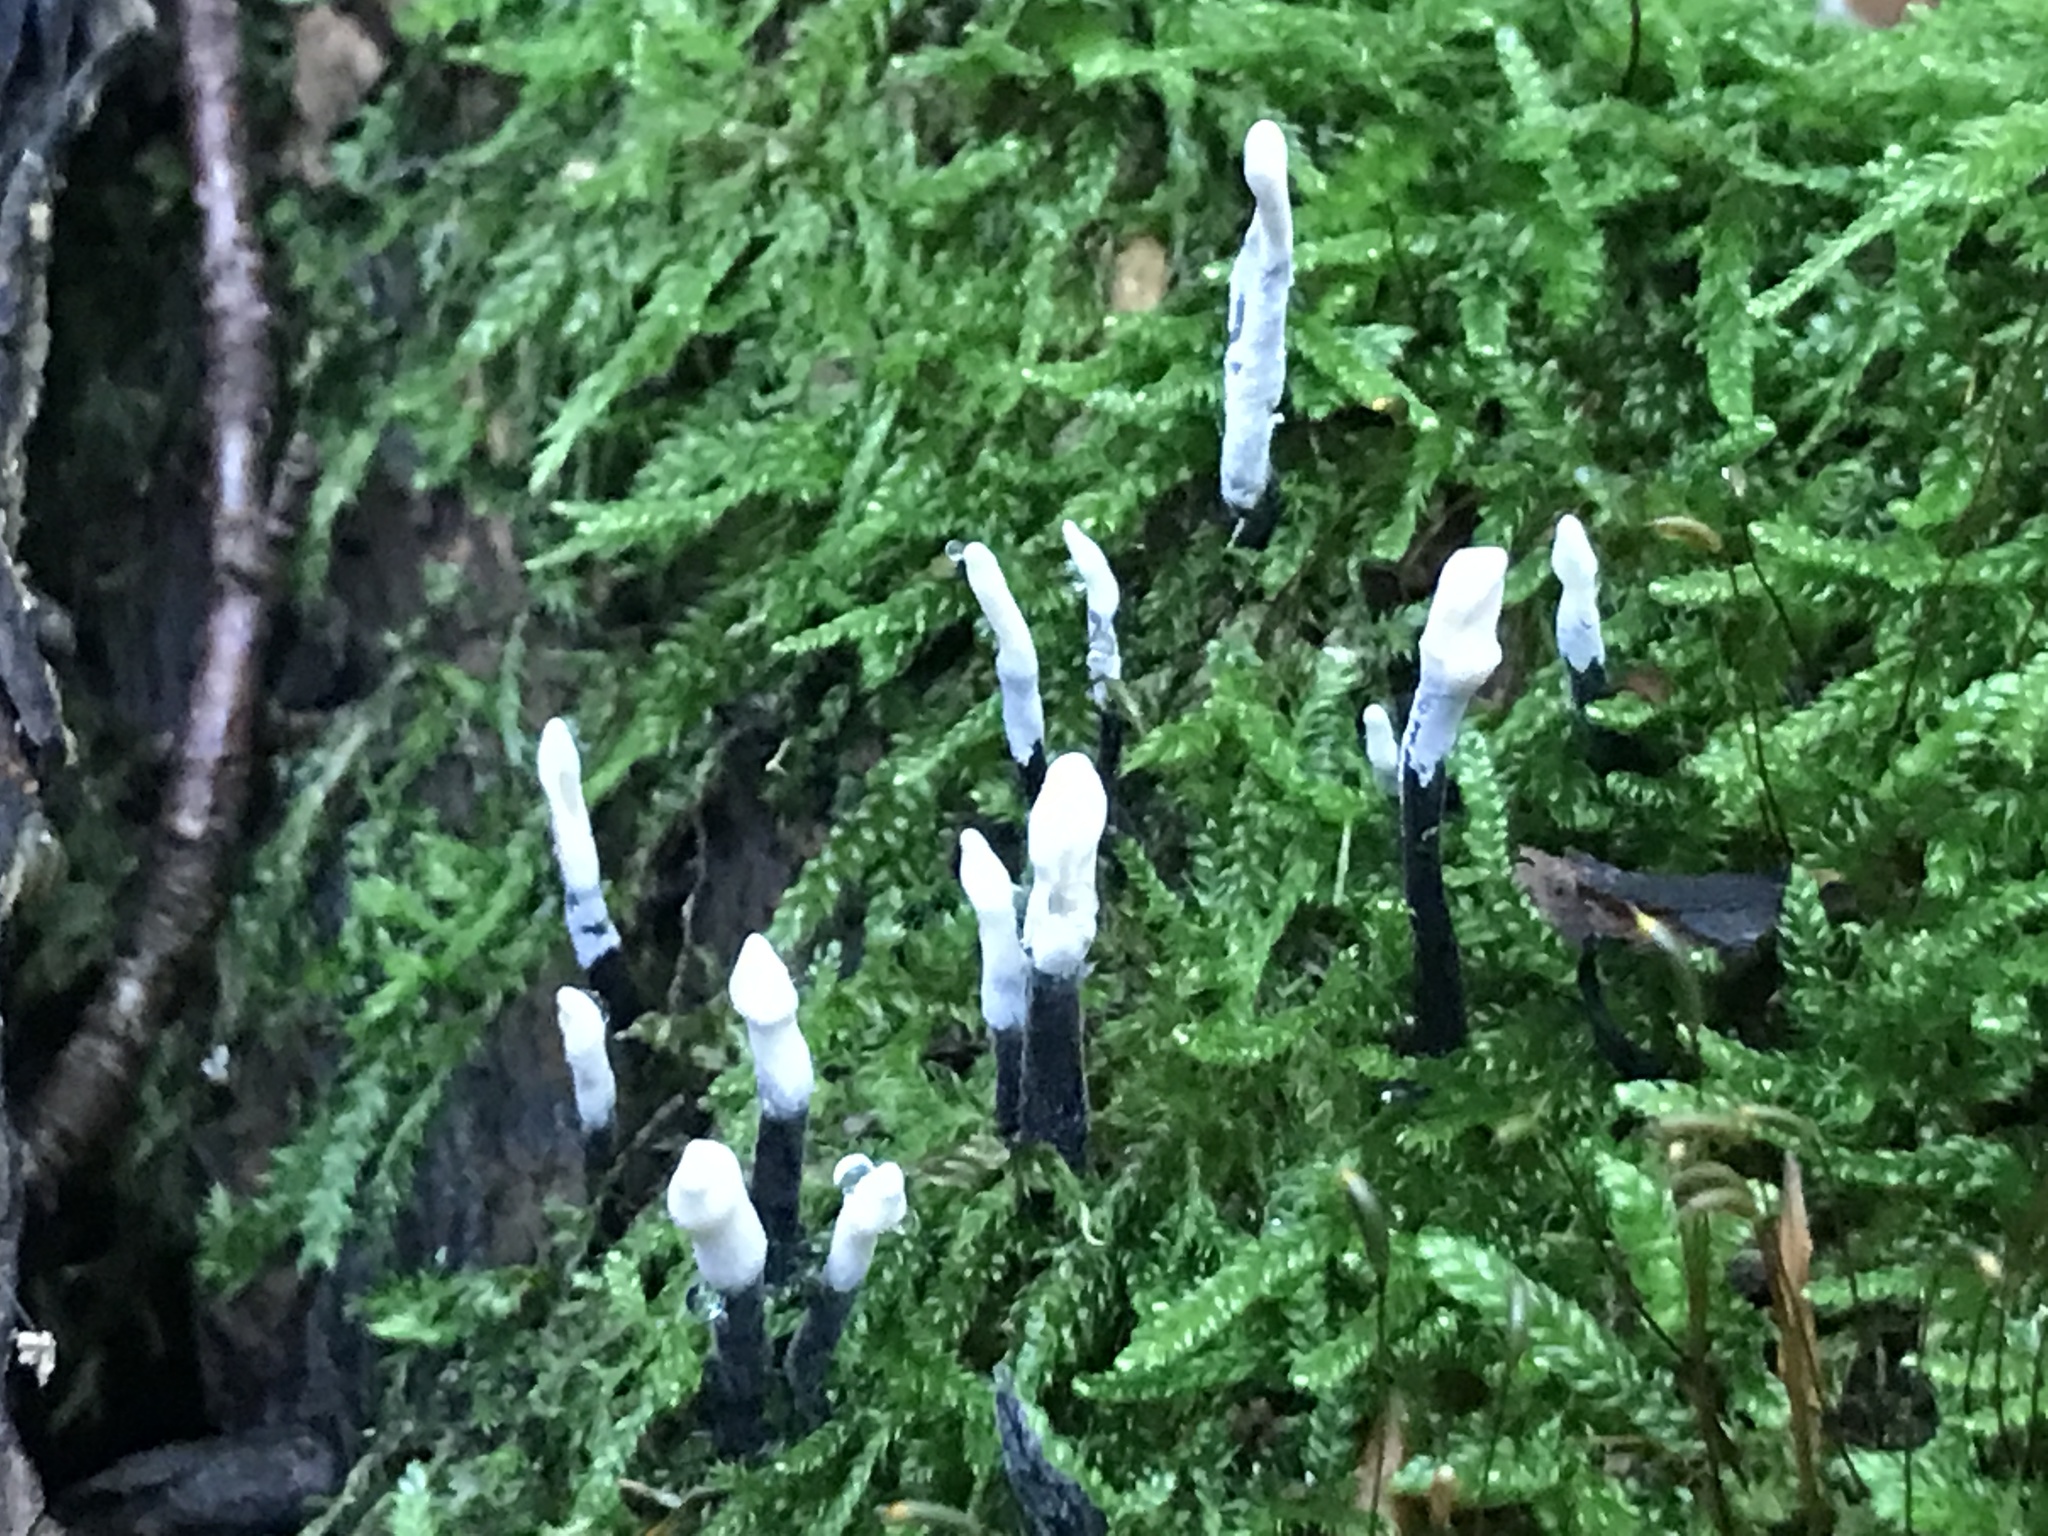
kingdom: Fungi
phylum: Ascomycota
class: Sordariomycetes
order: Xylariales
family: Xylariaceae
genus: Xylaria
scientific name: Xylaria hypoxylon
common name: Candle-snuff fungus
